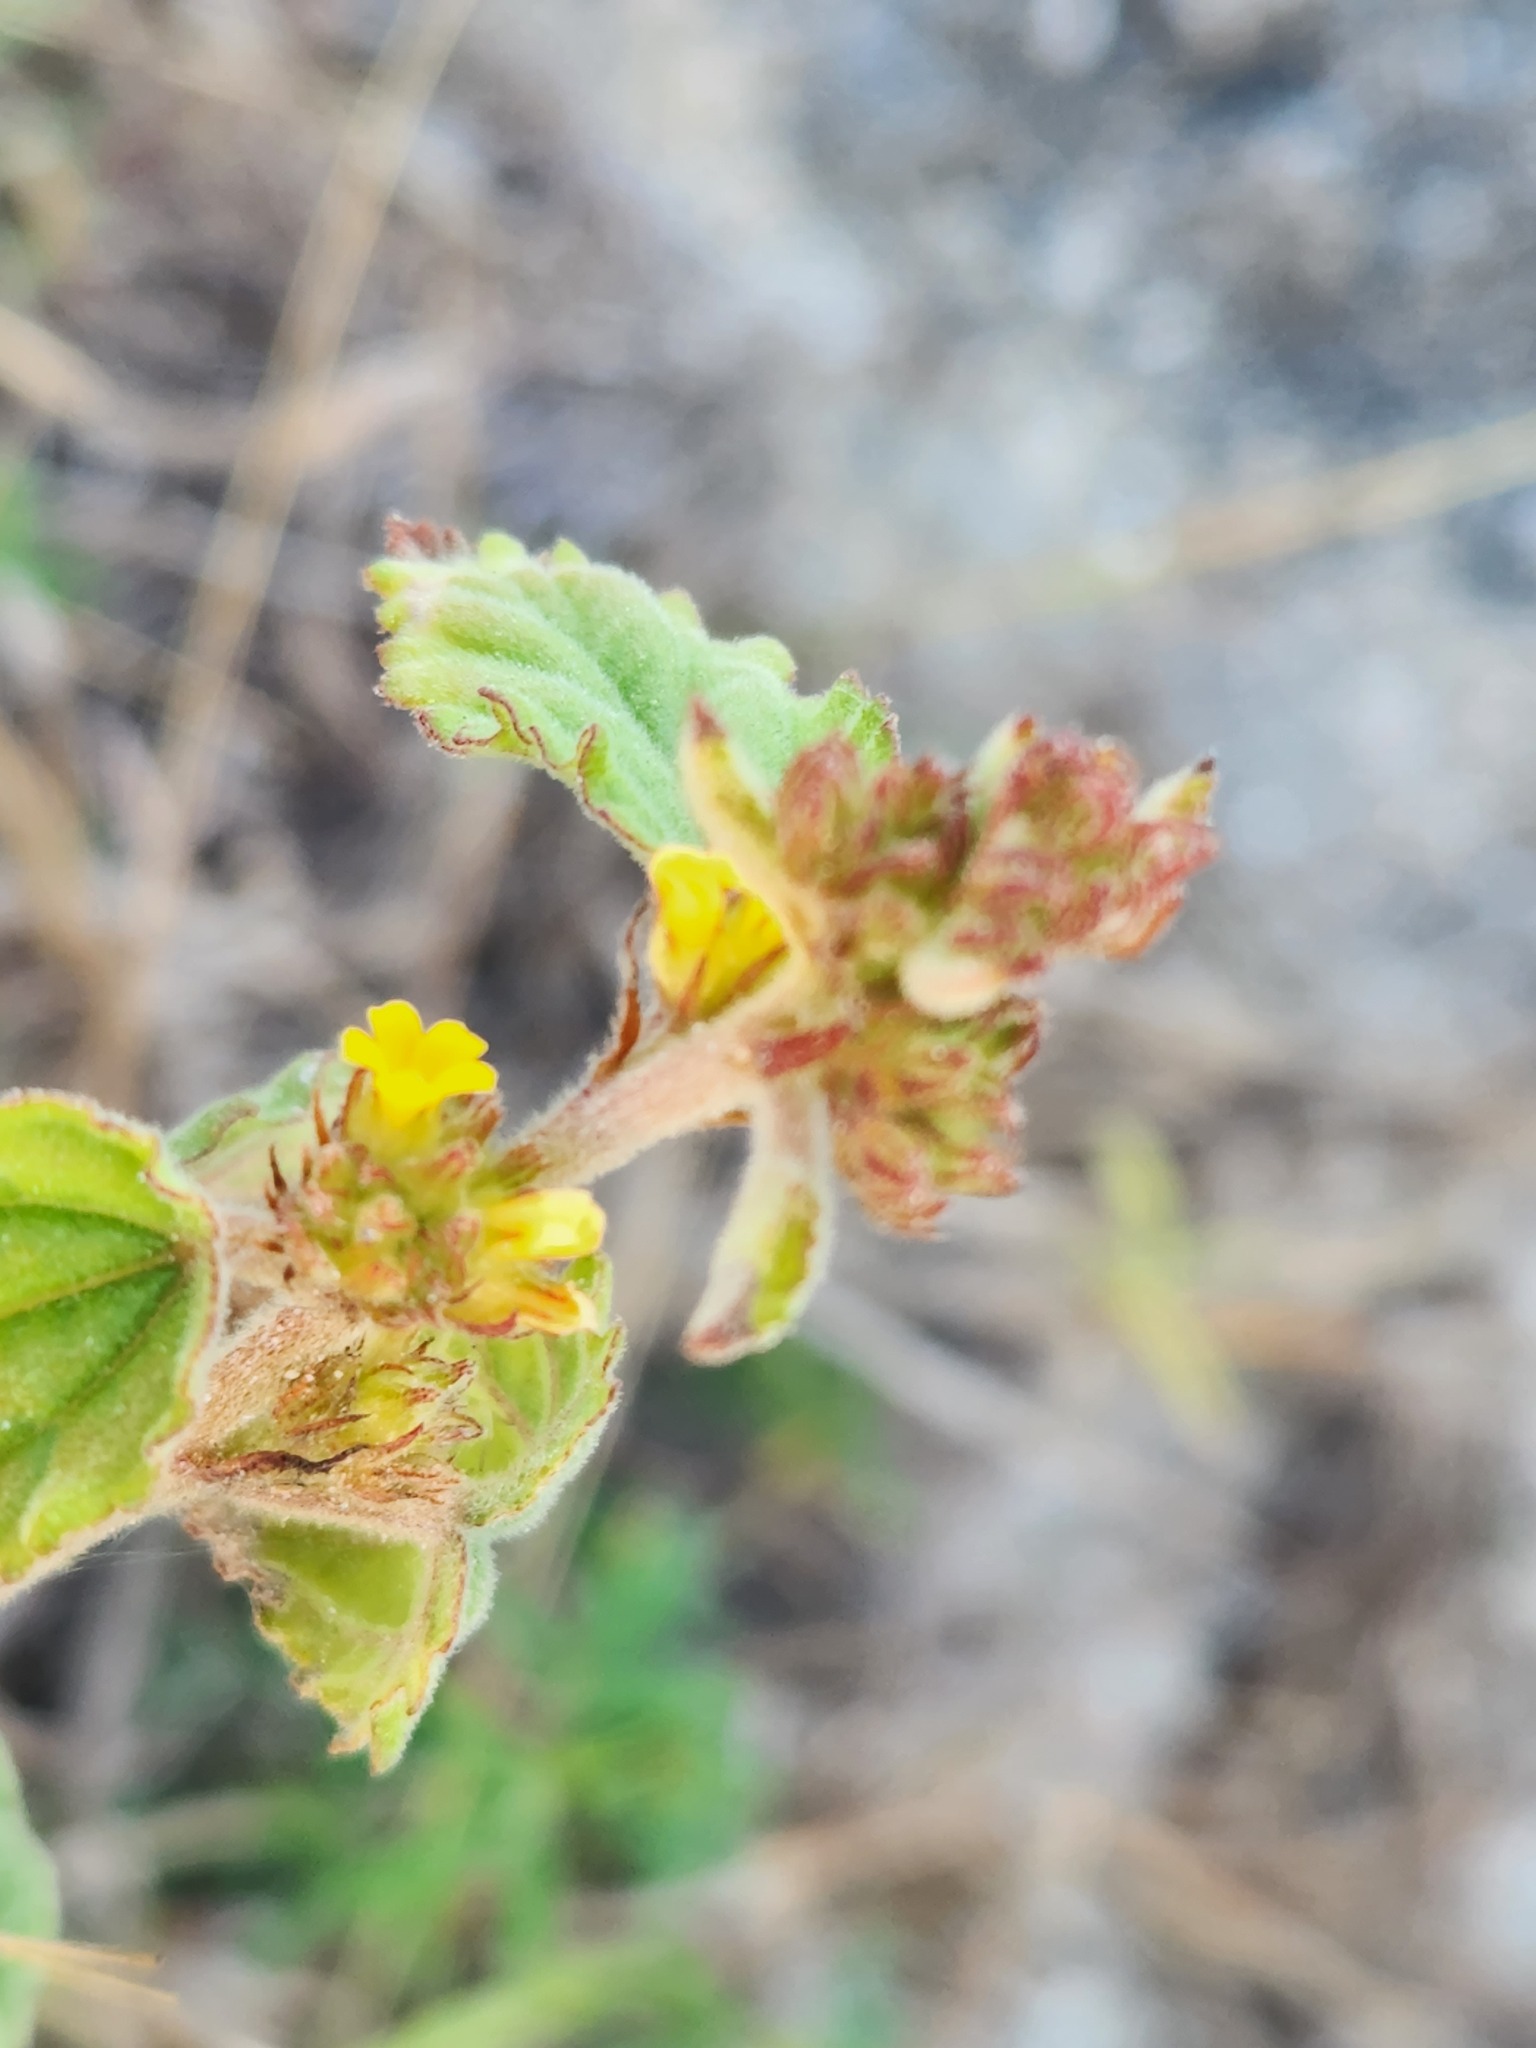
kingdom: Plantae
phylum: Tracheophyta
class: Magnoliopsida
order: Malvales
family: Malvaceae
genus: Waltheria
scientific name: Waltheria indica
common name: Leather-coat
